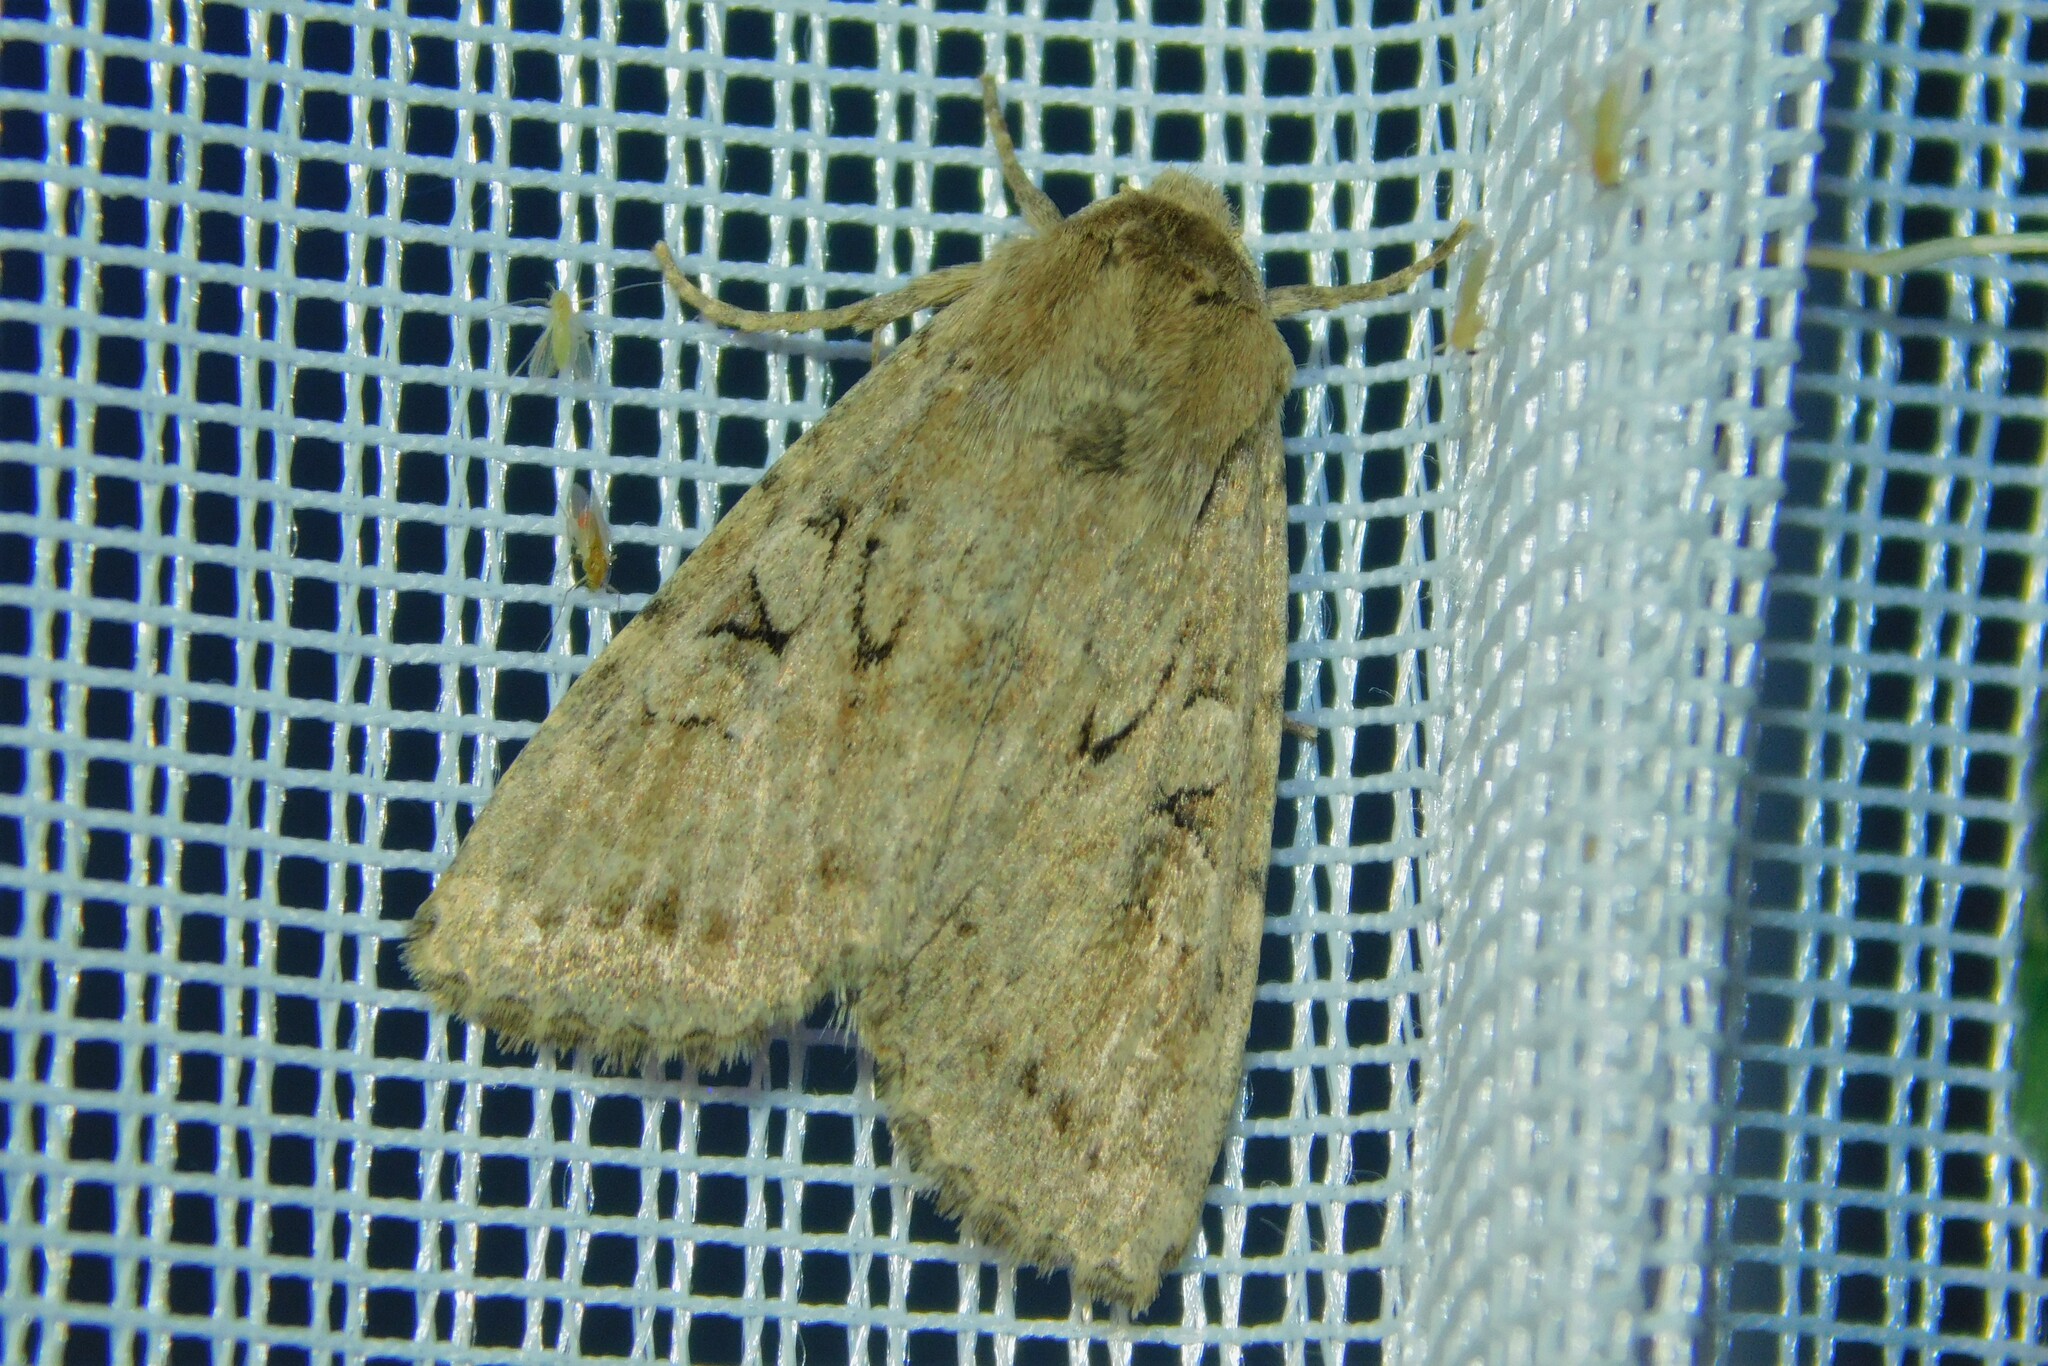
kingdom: Animalia
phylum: Arthropoda
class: Insecta
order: Lepidoptera
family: Noctuidae
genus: Apterogenum
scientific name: Apterogenum ypsillon
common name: Dingy shears
